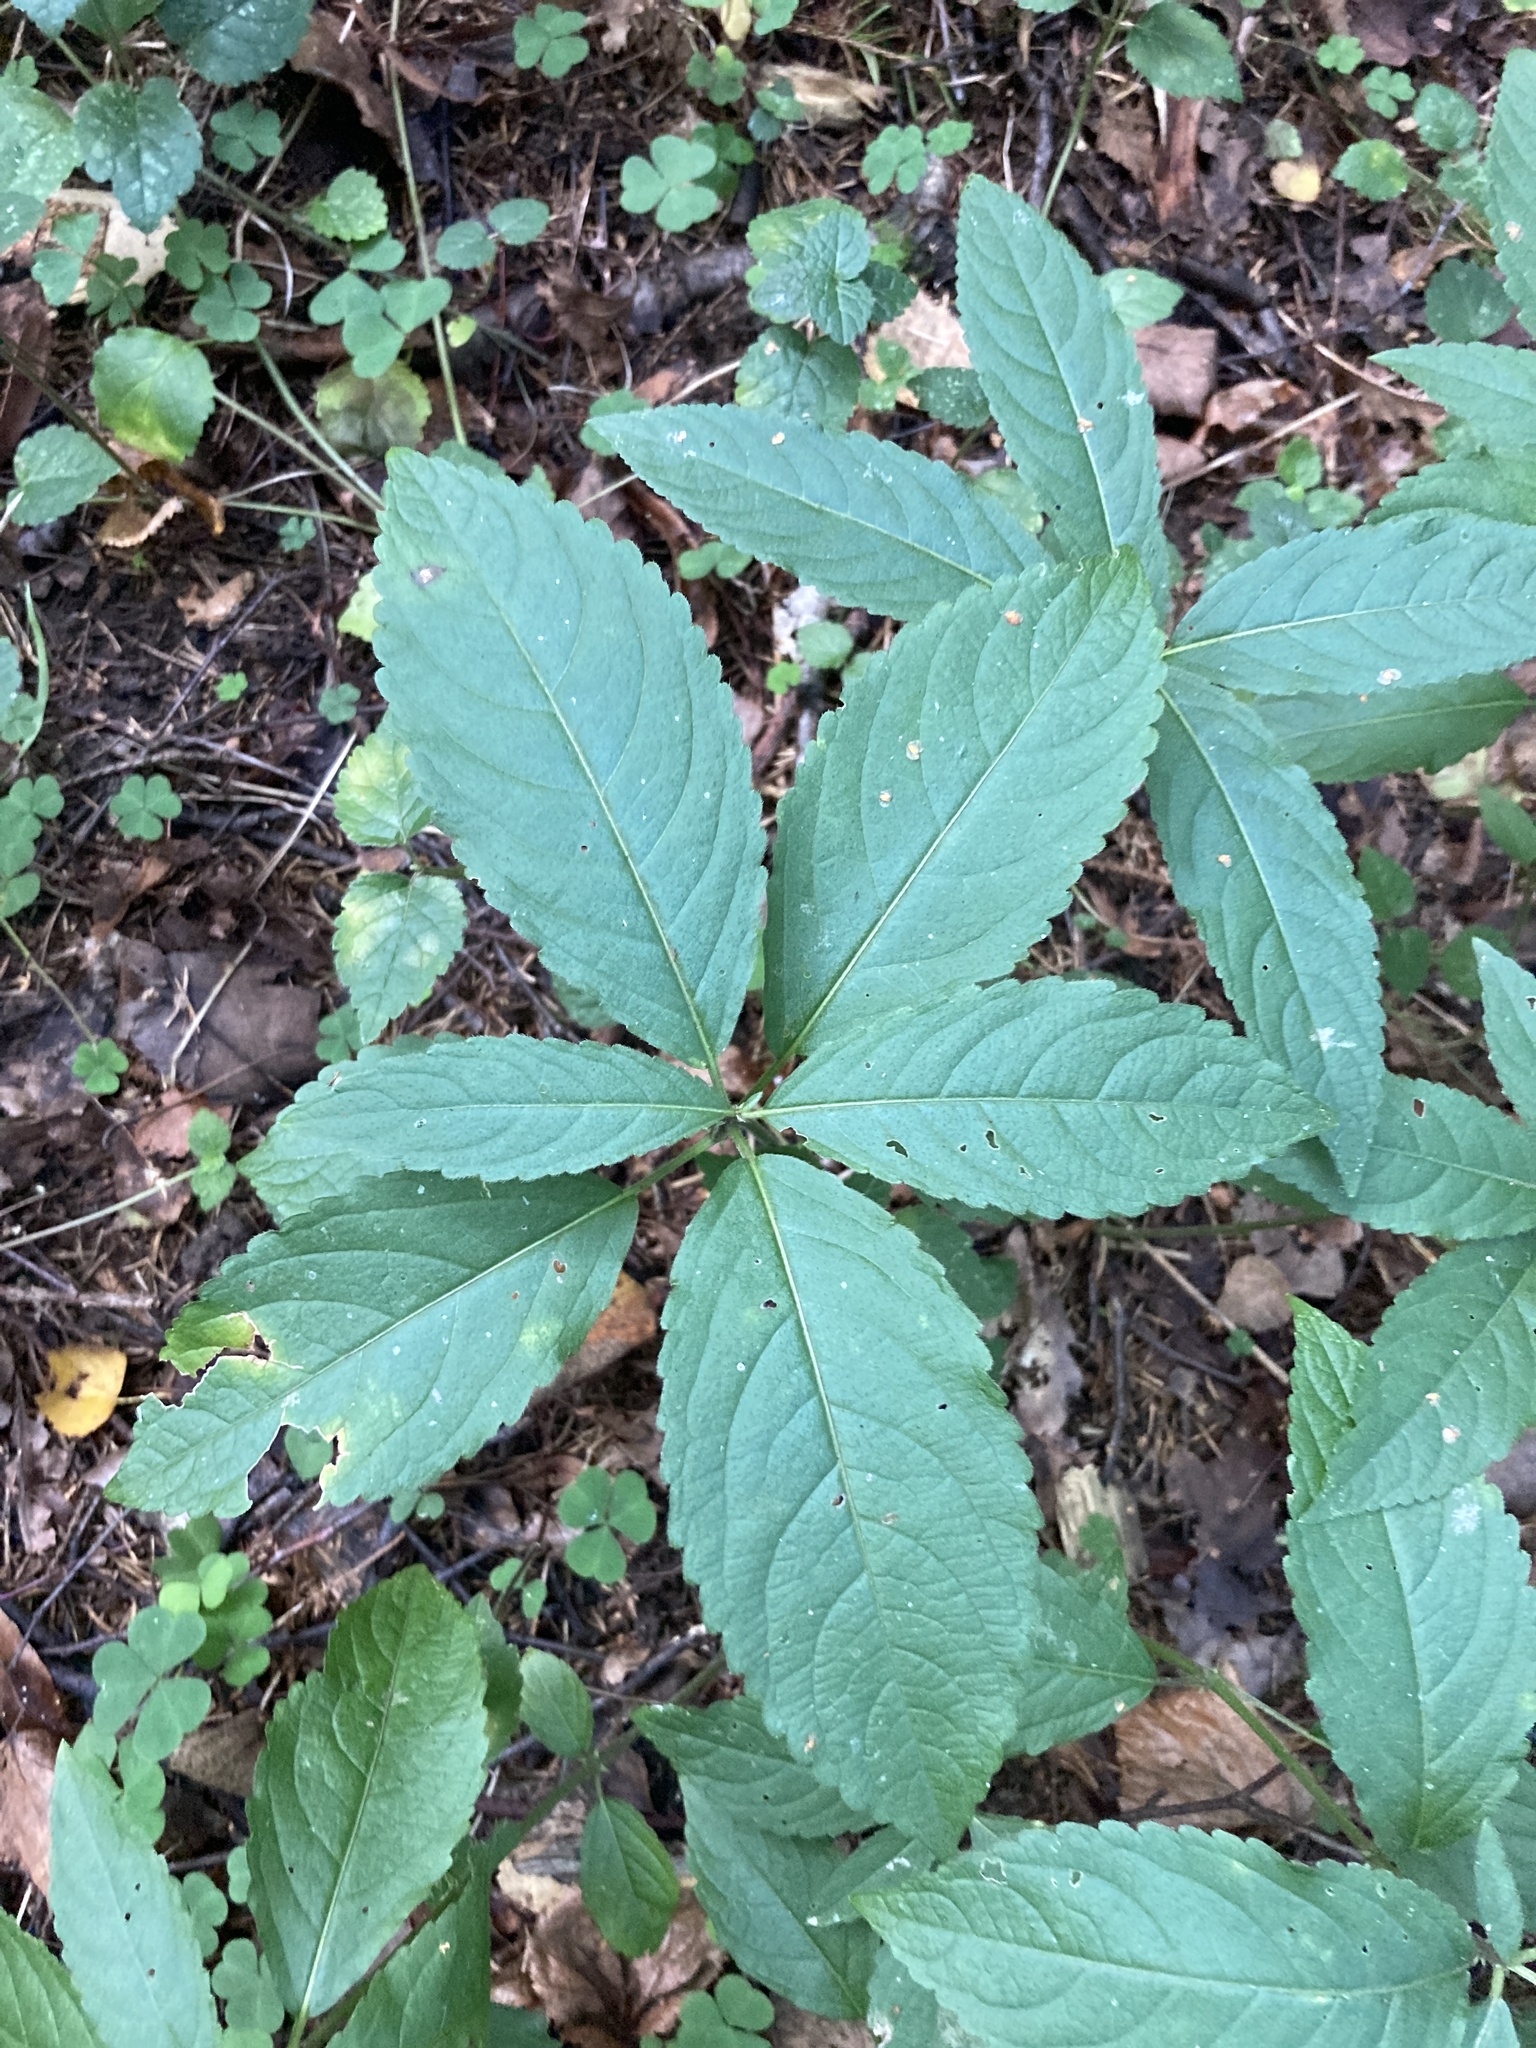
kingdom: Plantae
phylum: Tracheophyta
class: Magnoliopsida
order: Malpighiales
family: Euphorbiaceae
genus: Mercurialis
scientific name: Mercurialis perennis
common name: Dog mercury
